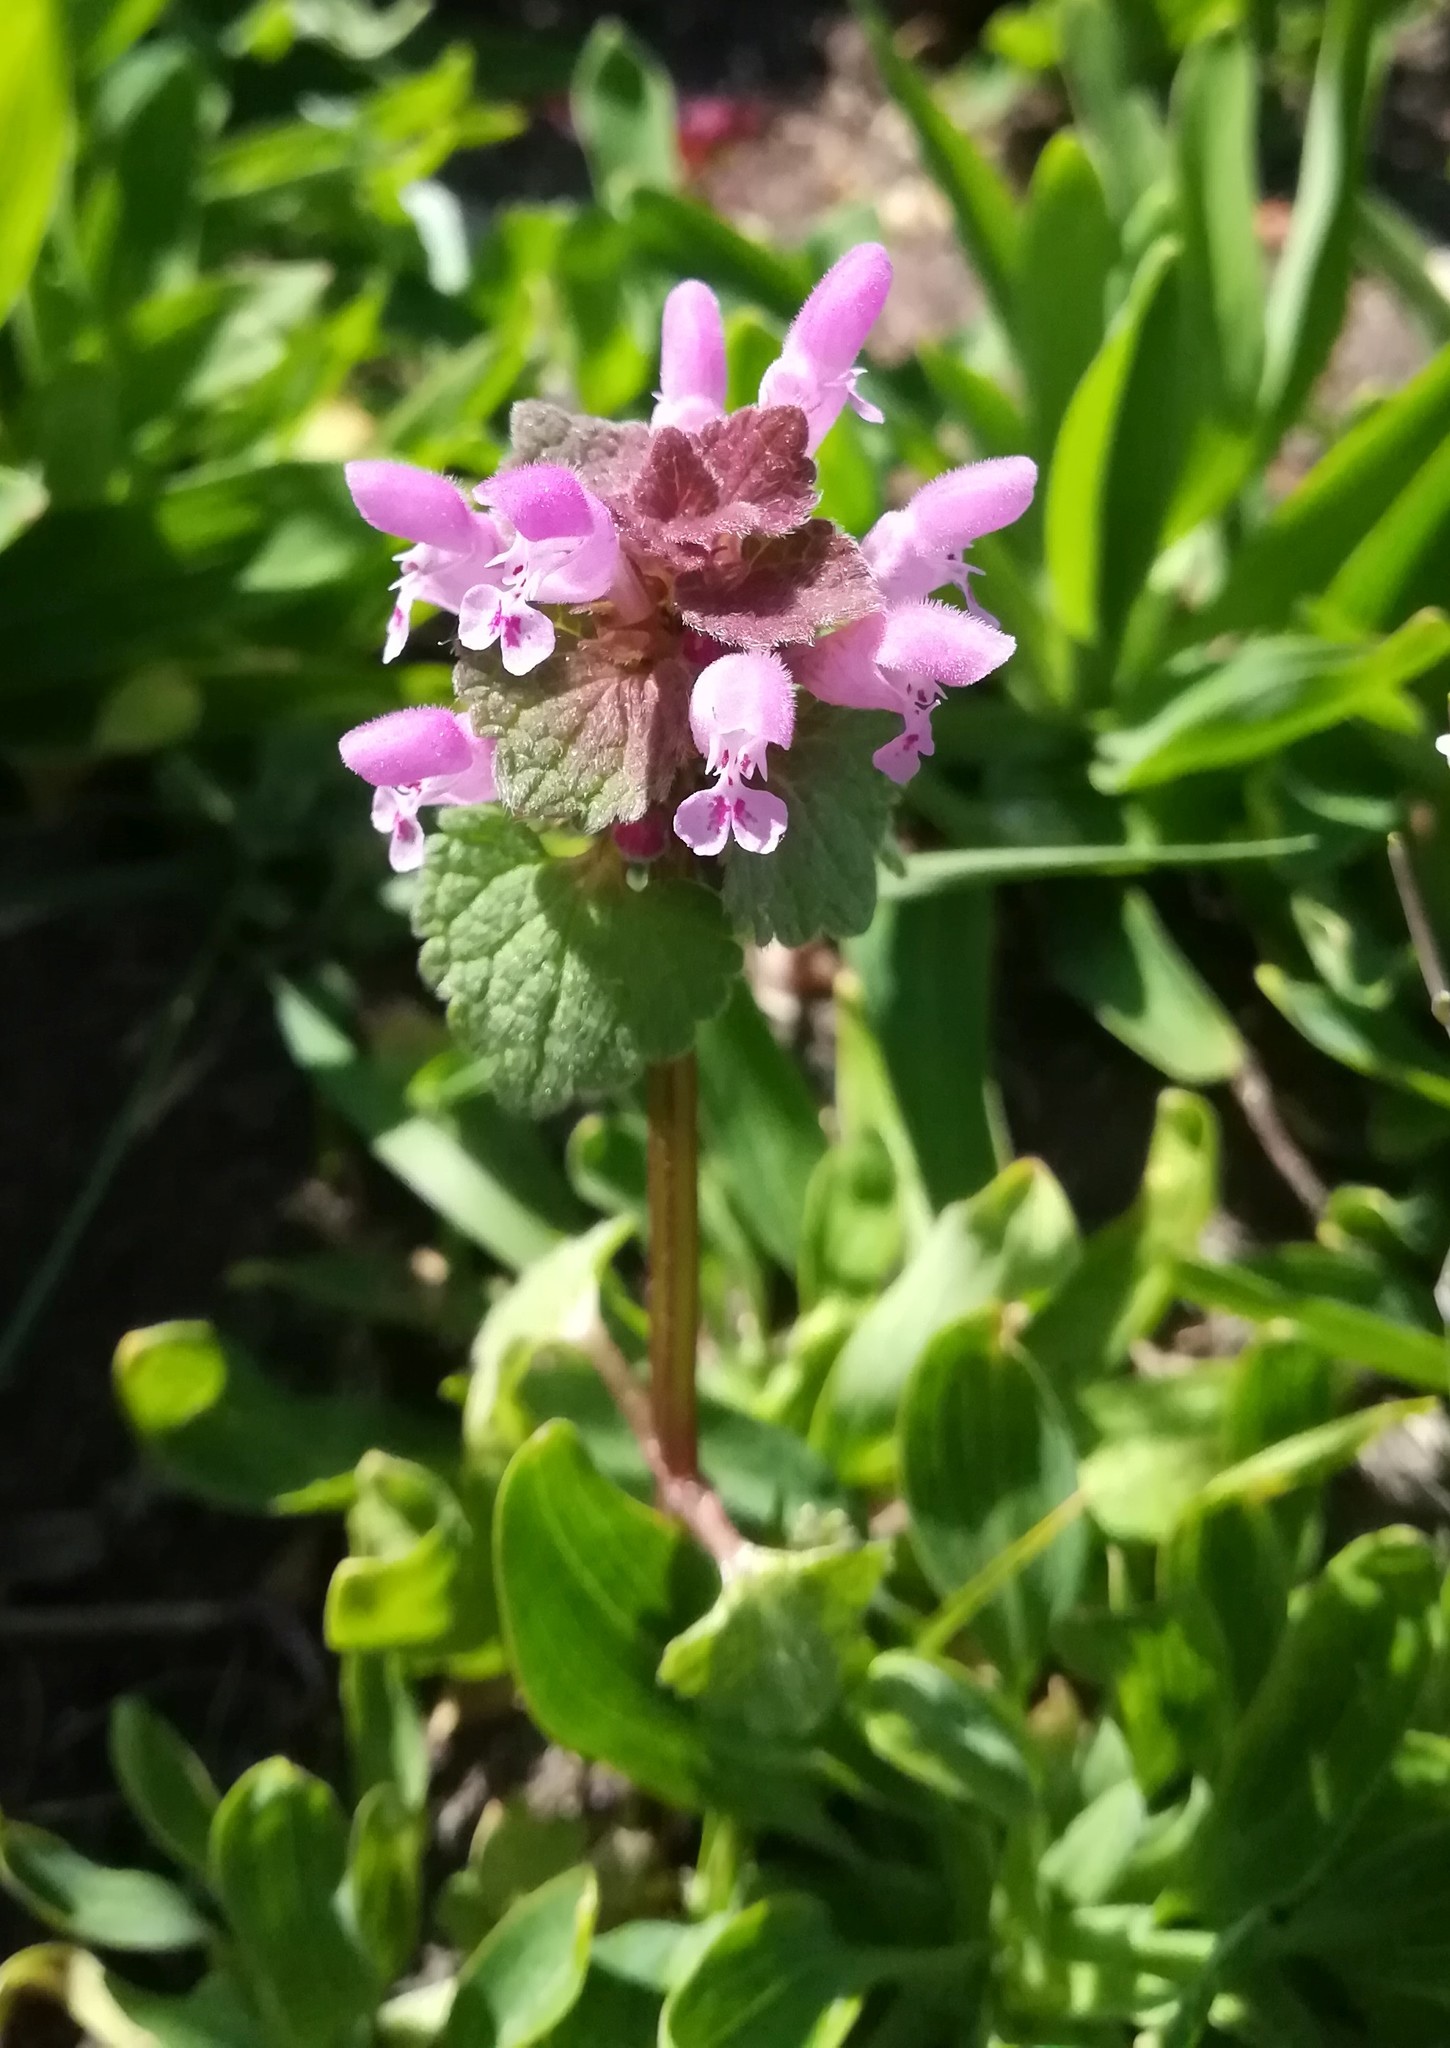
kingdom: Plantae
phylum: Tracheophyta
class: Magnoliopsida
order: Lamiales
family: Lamiaceae
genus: Lamium
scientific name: Lamium purpureum
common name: Red dead-nettle
